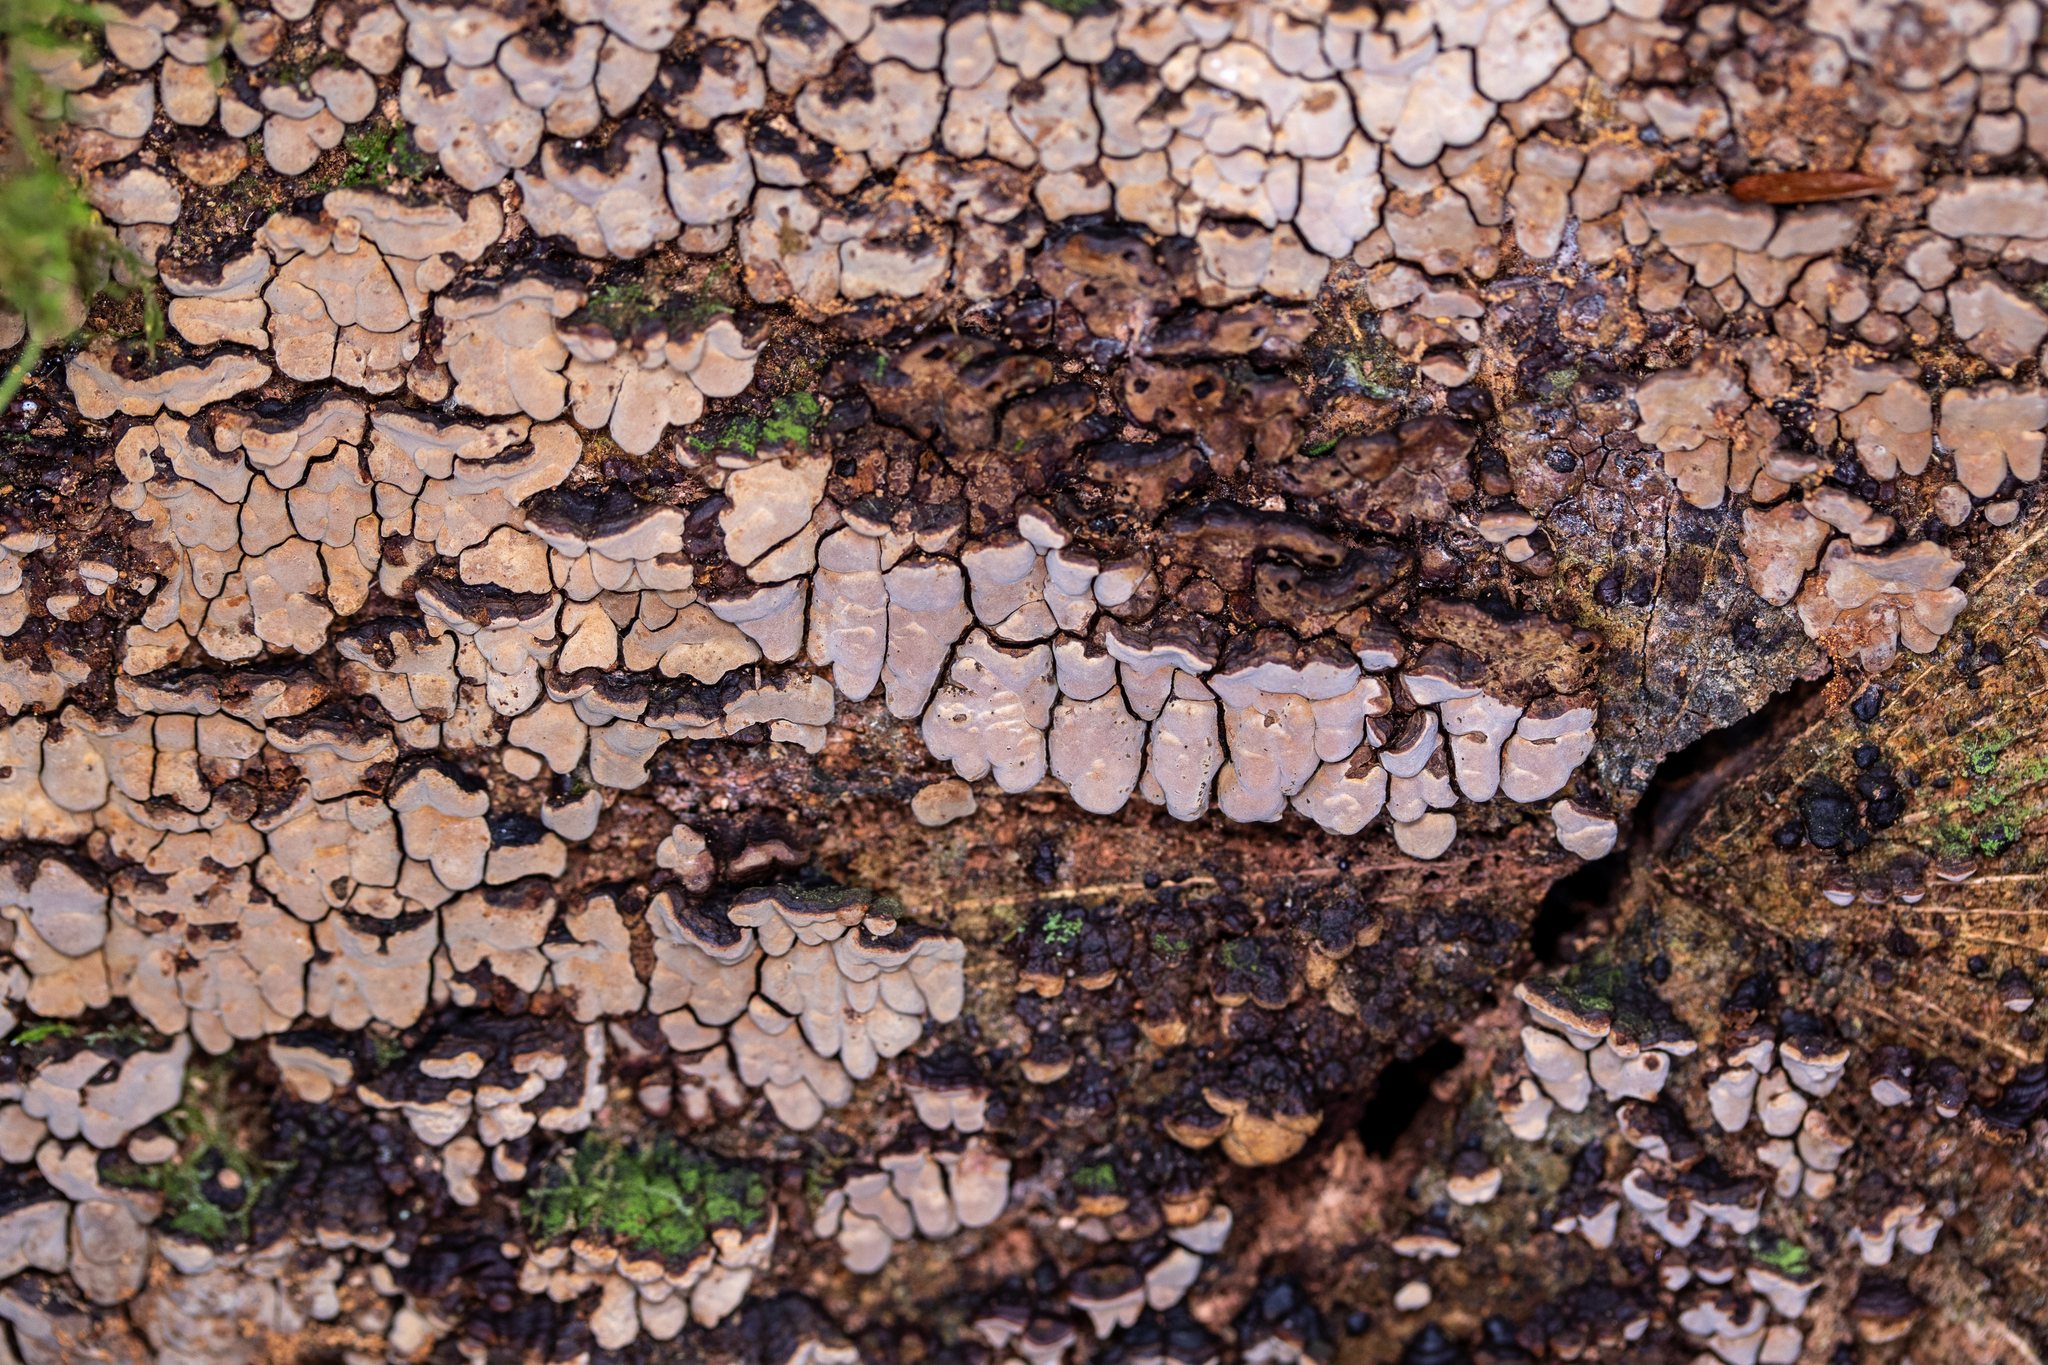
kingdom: Fungi
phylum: Basidiomycota
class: Agaricomycetes
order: Russulales
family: Stereaceae
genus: Xylobolus
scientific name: Xylobolus frustulatus
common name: Ceramic parchment
